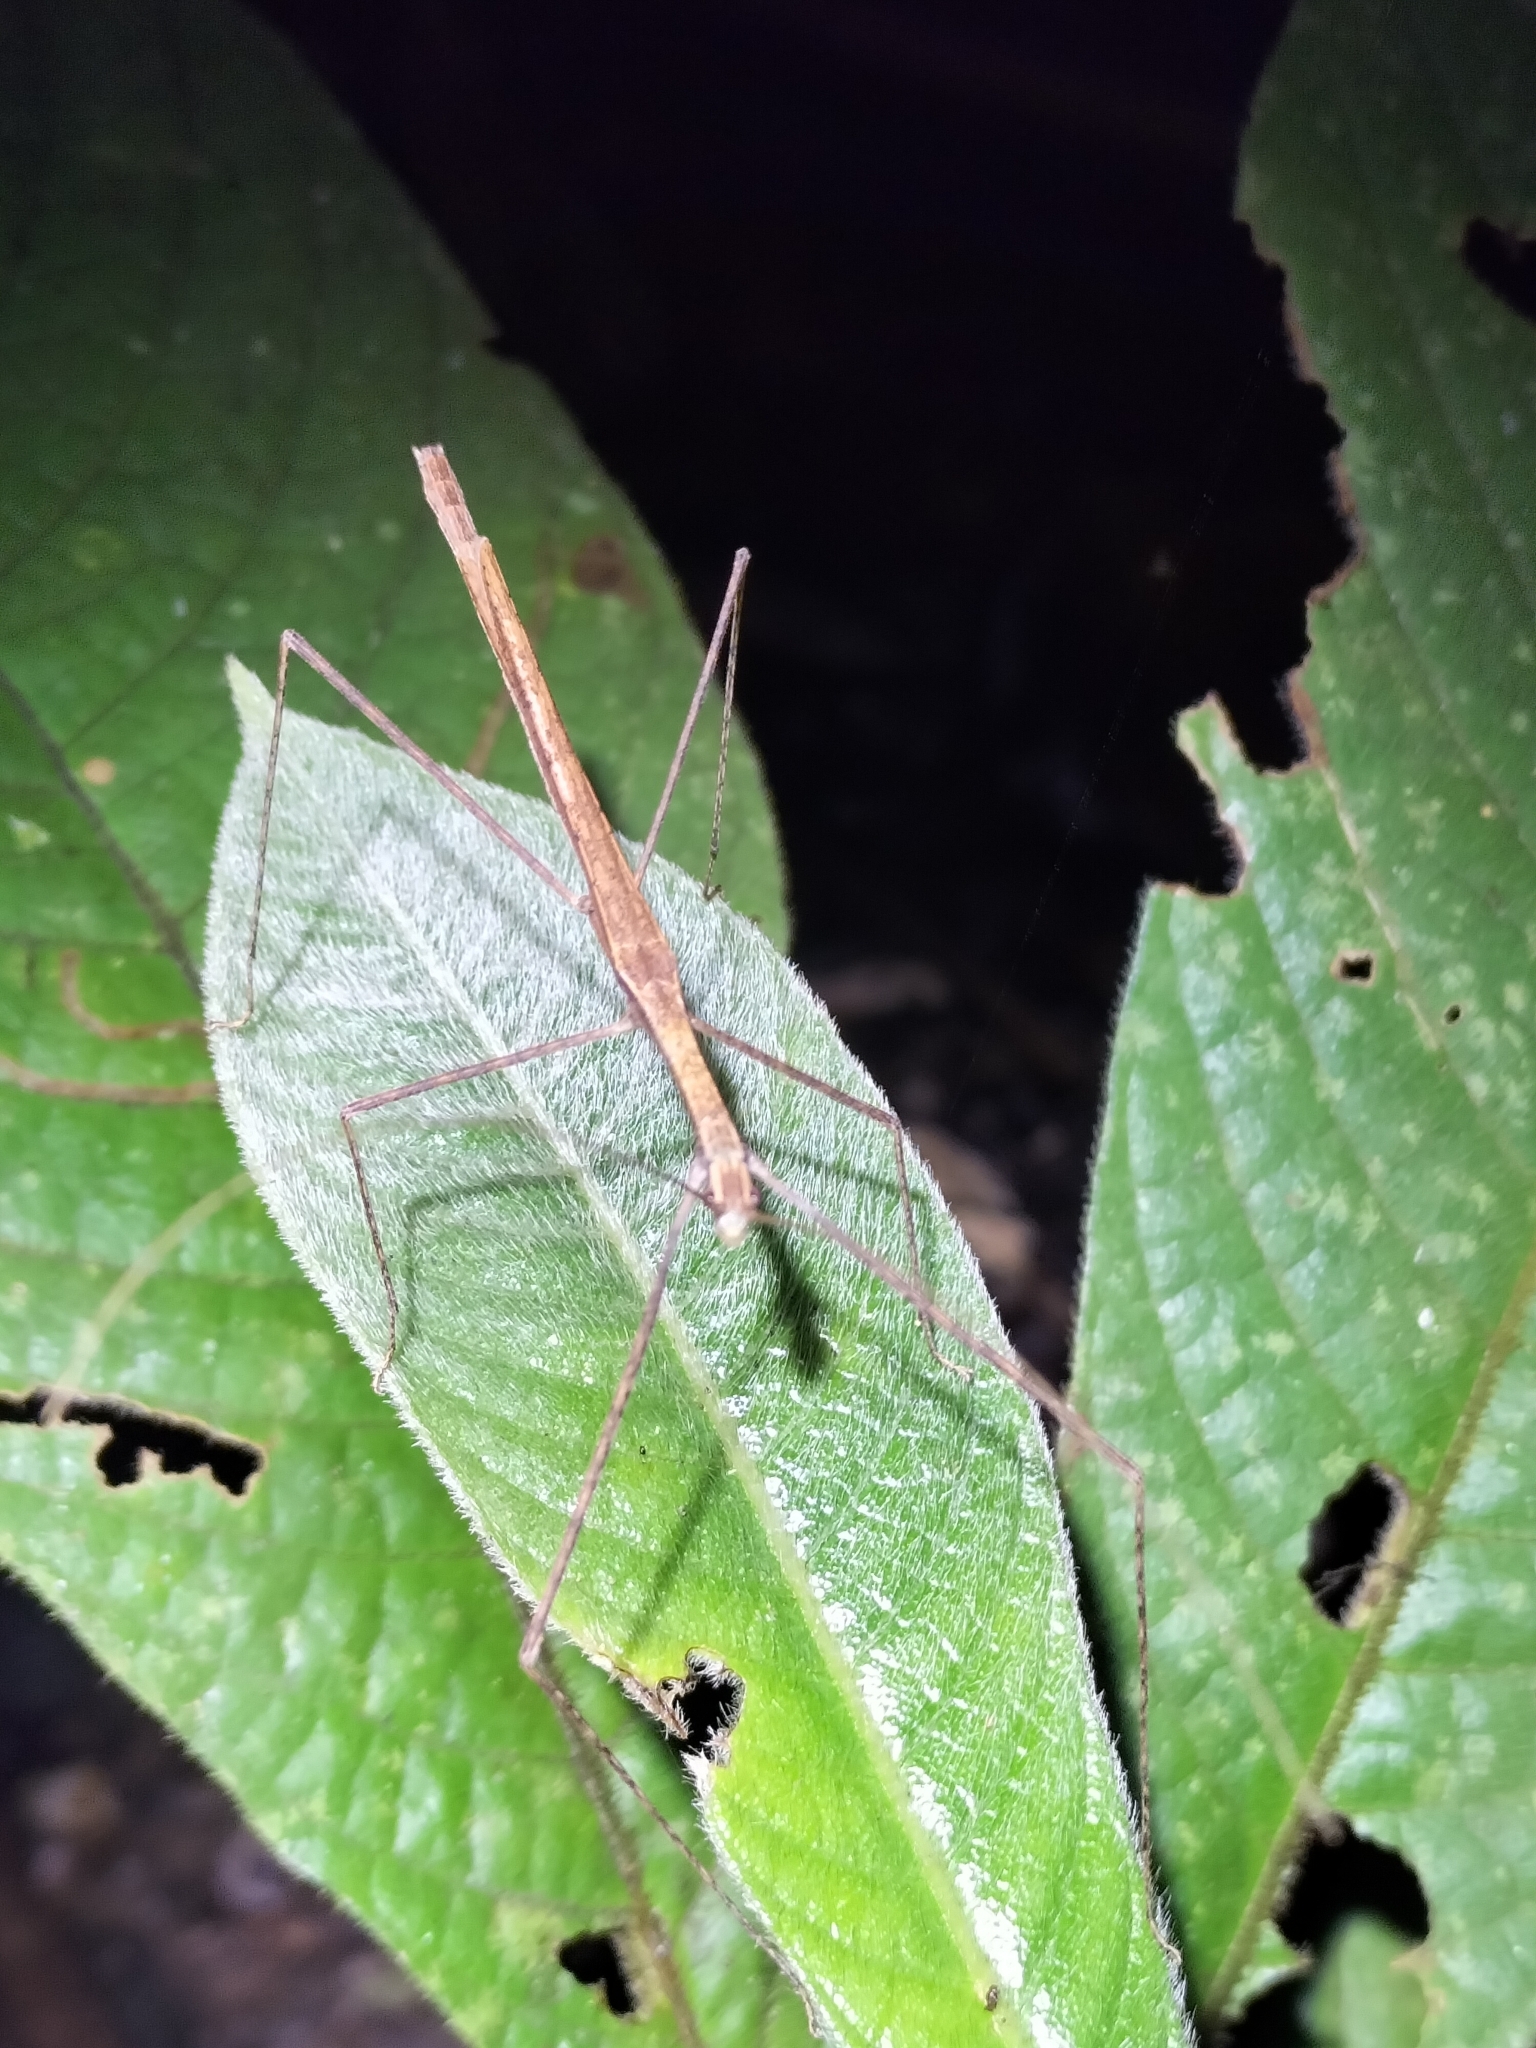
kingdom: Animalia
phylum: Arthropoda
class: Insecta
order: Phasmida
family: Lonchodidae
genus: Sipyloidea
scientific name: Sipyloidea larryi
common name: Hurricane larry stick-insect
